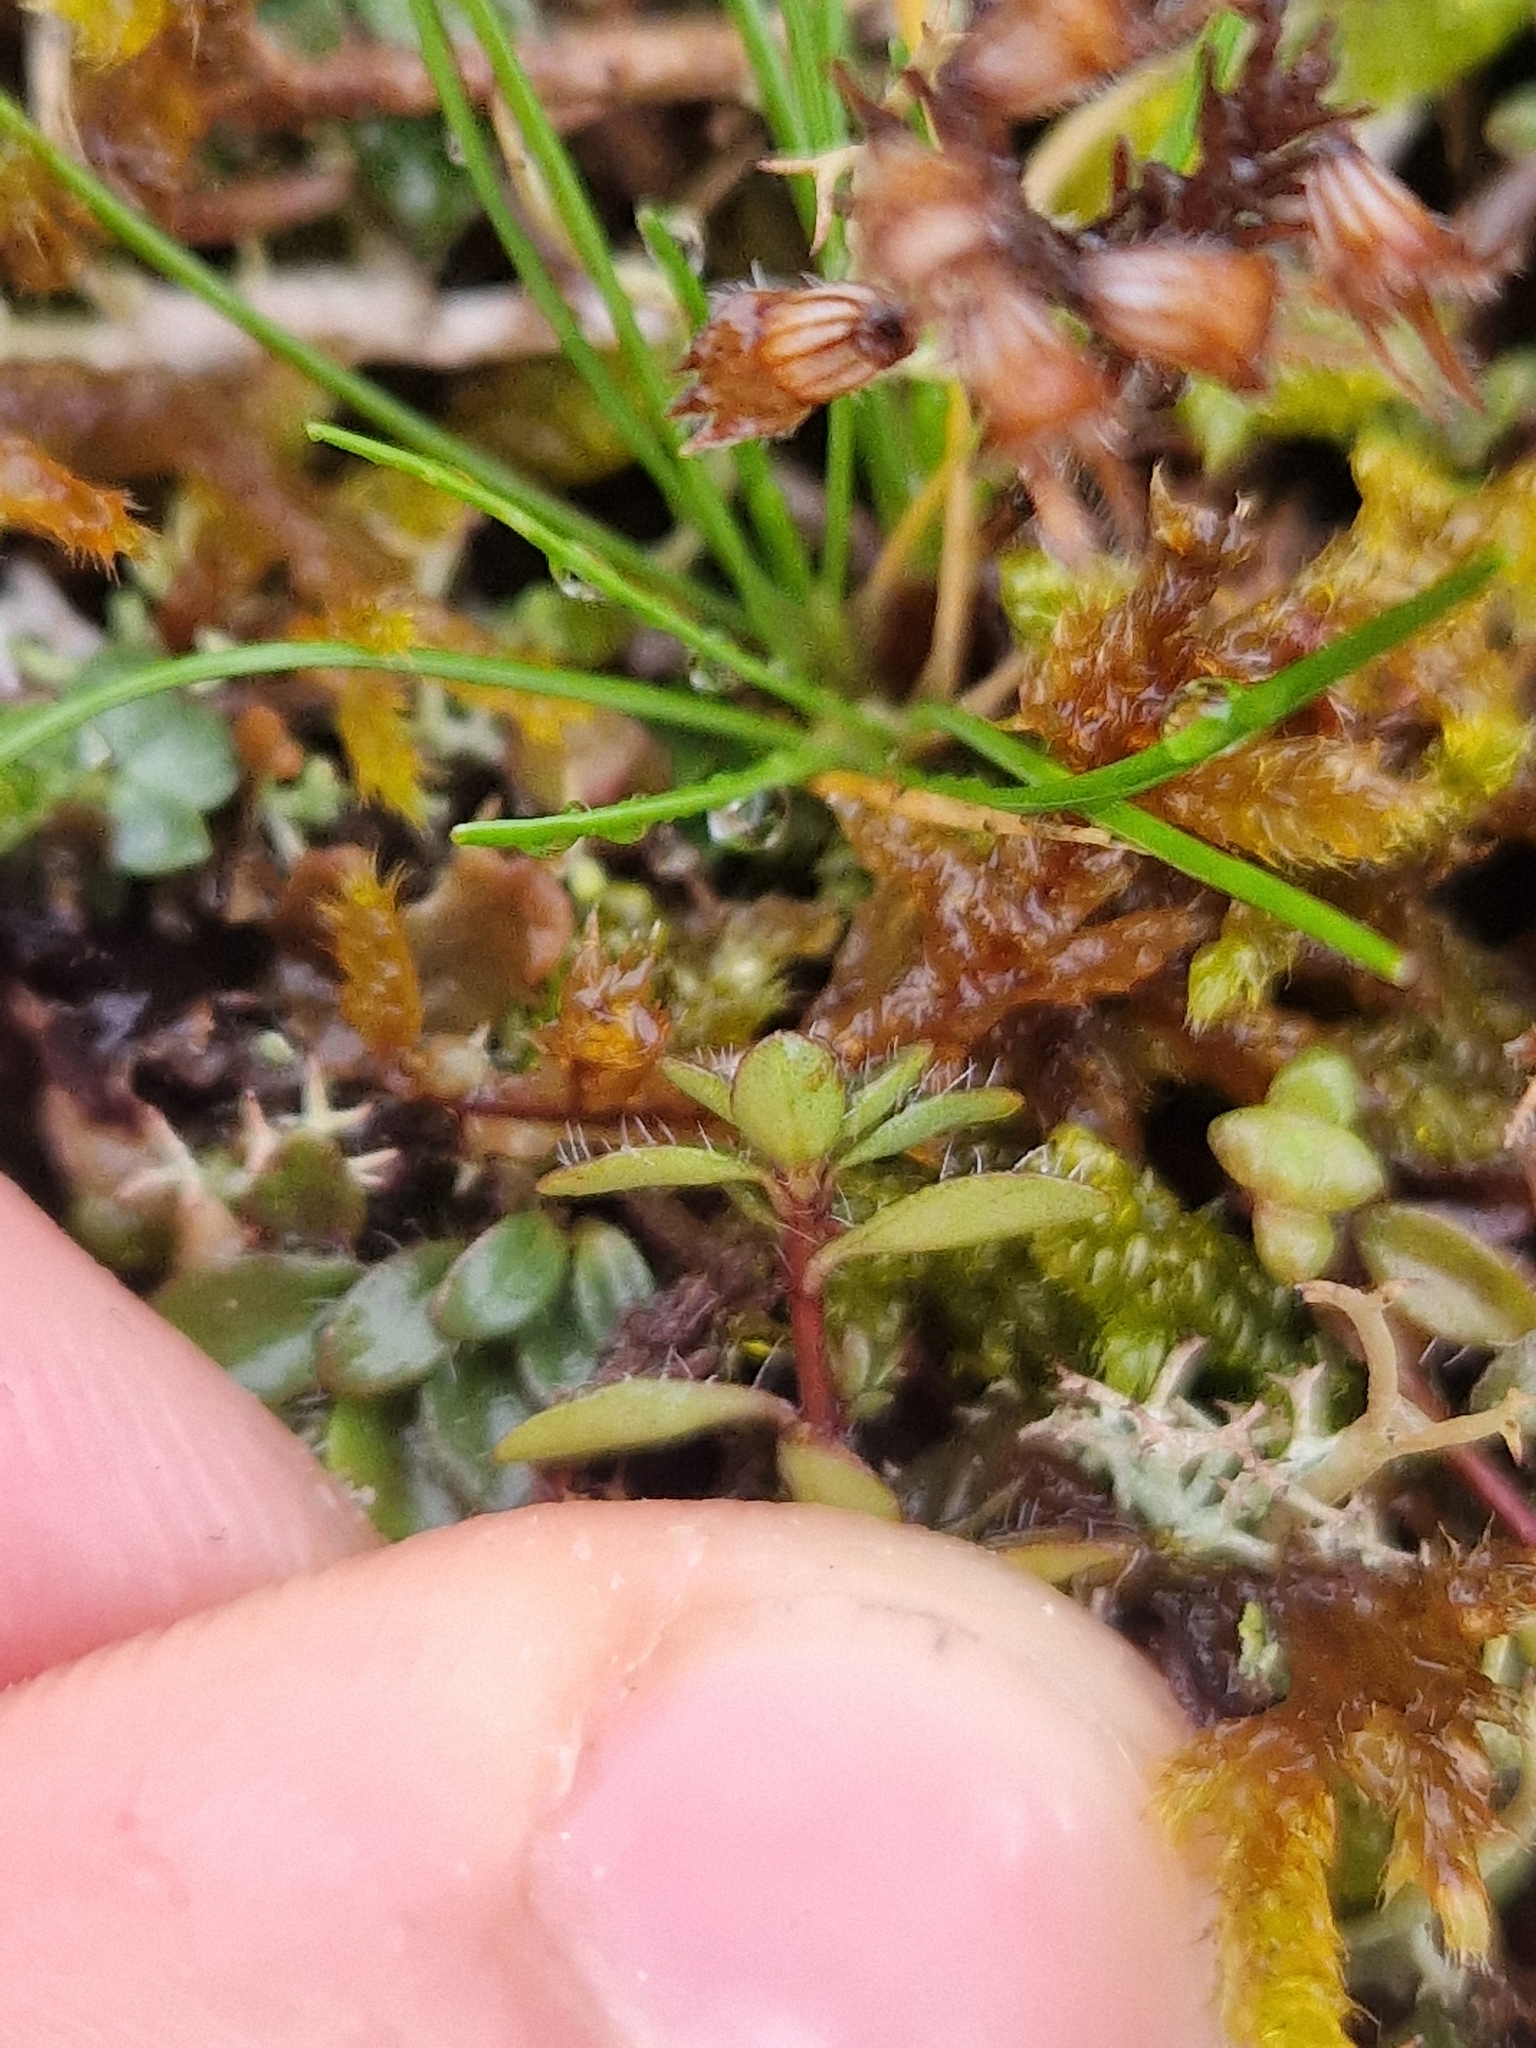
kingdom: Plantae
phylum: Tracheophyta
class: Magnoliopsida
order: Lamiales
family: Lamiaceae
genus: Thymus
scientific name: Thymus praecox
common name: Wild thyme
